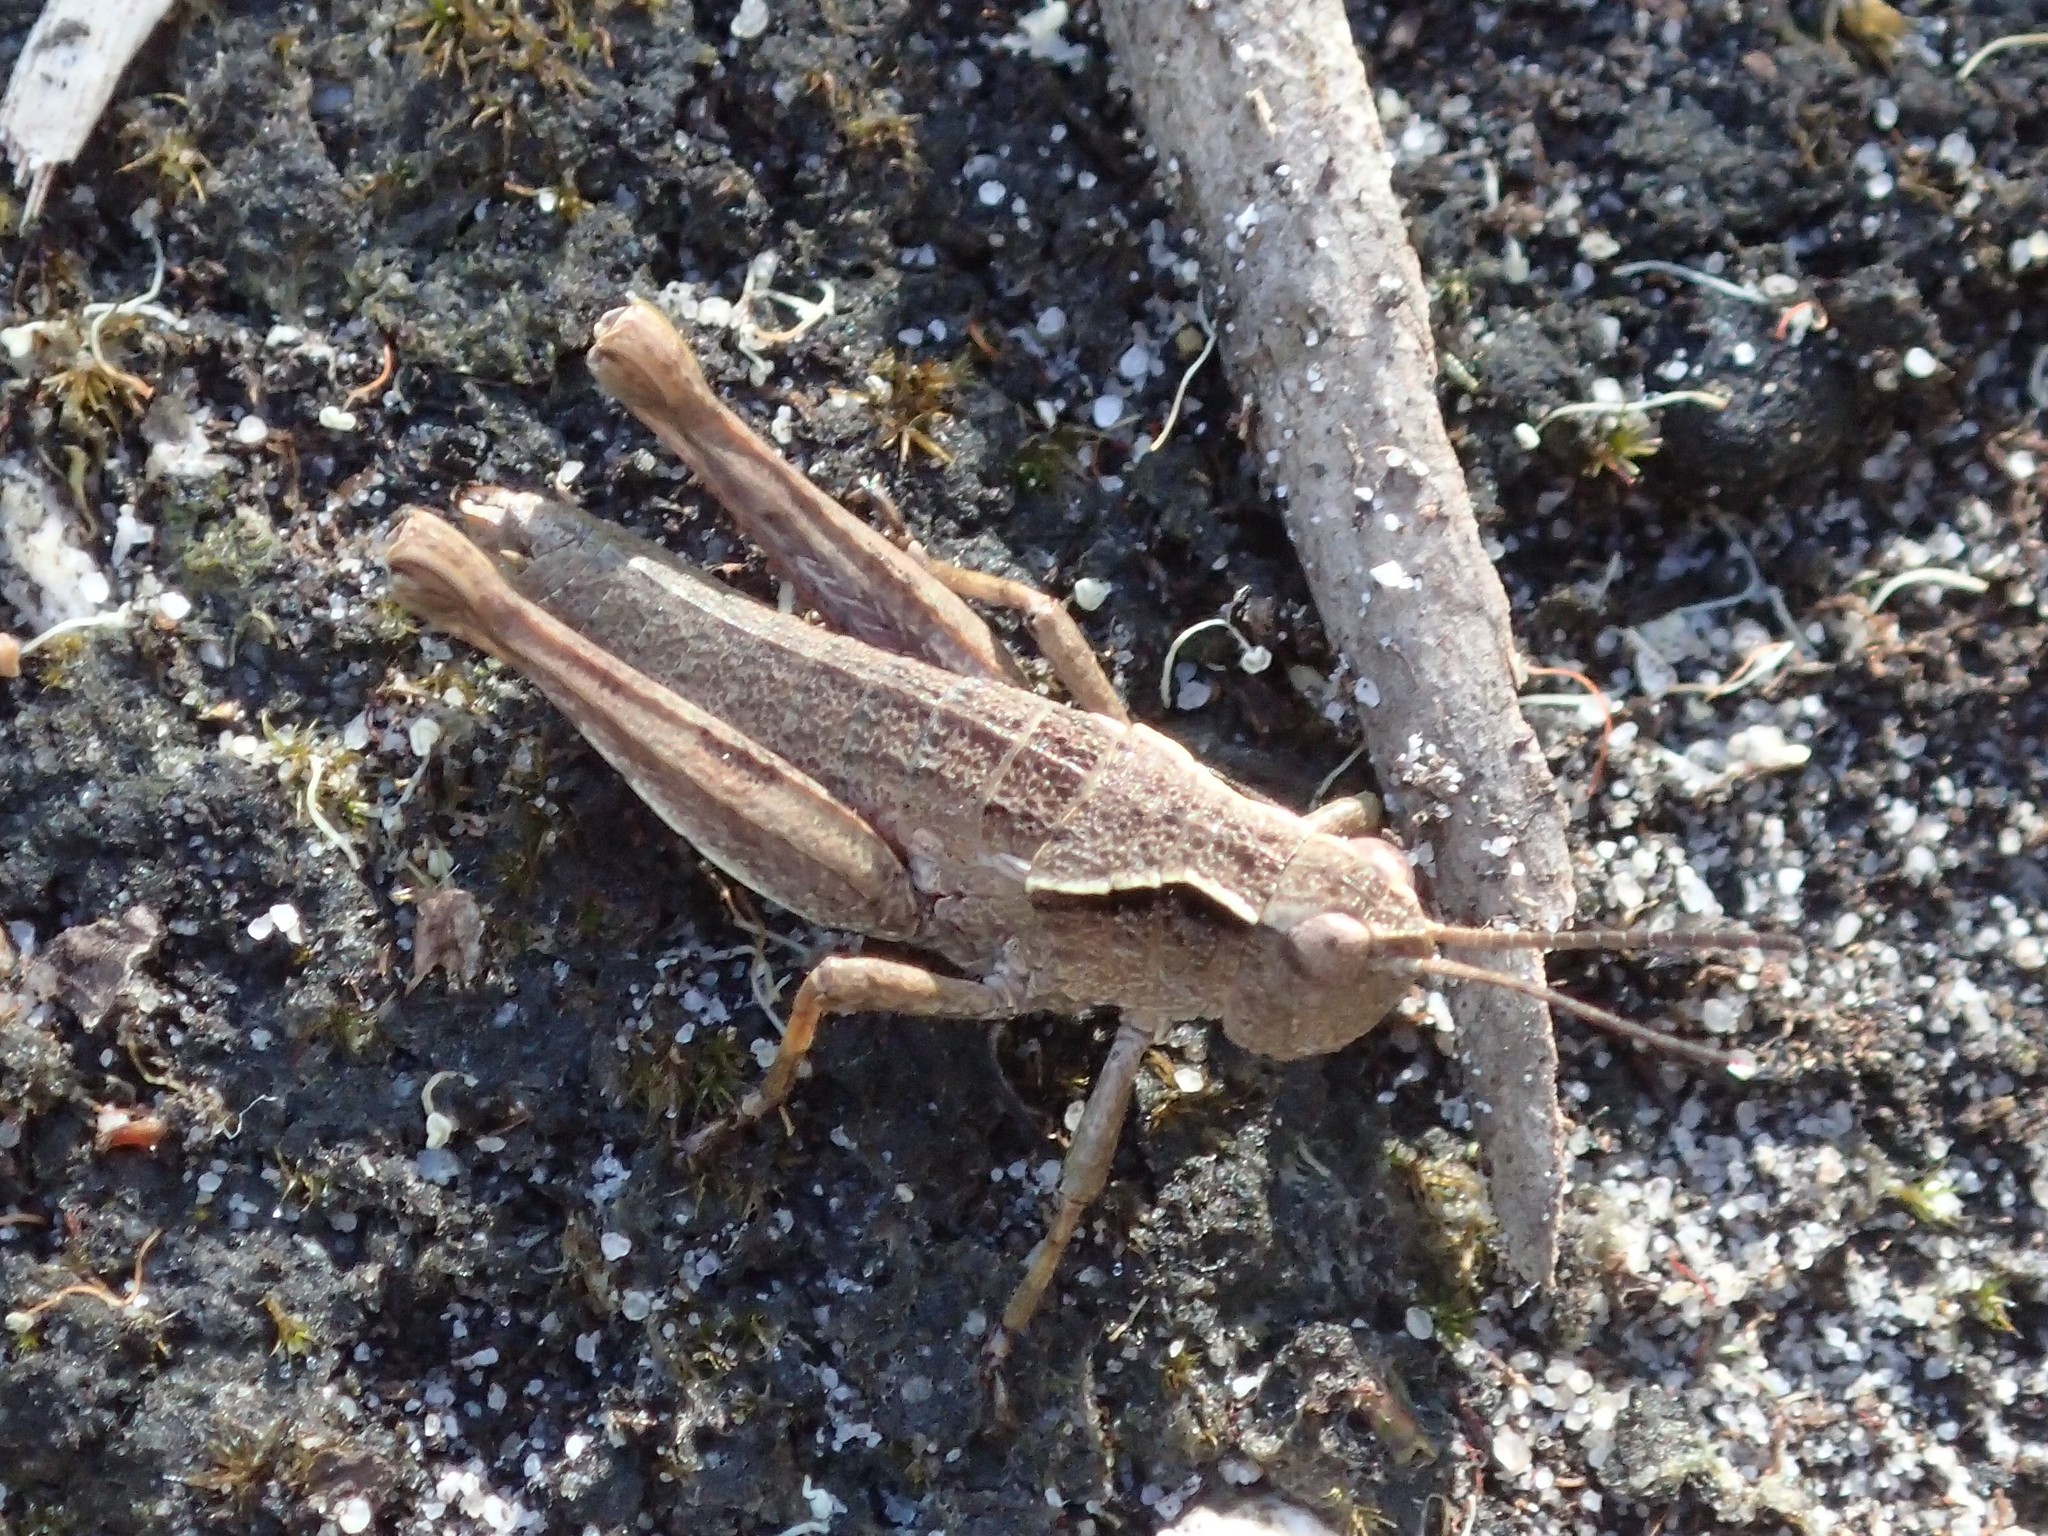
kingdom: Animalia
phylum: Arthropoda
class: Insecta
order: Orthoptera
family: Acrididae
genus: Tasmaniacris
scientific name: Tasmaniacris tasmaniensis
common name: Tasmanian grasshopper
